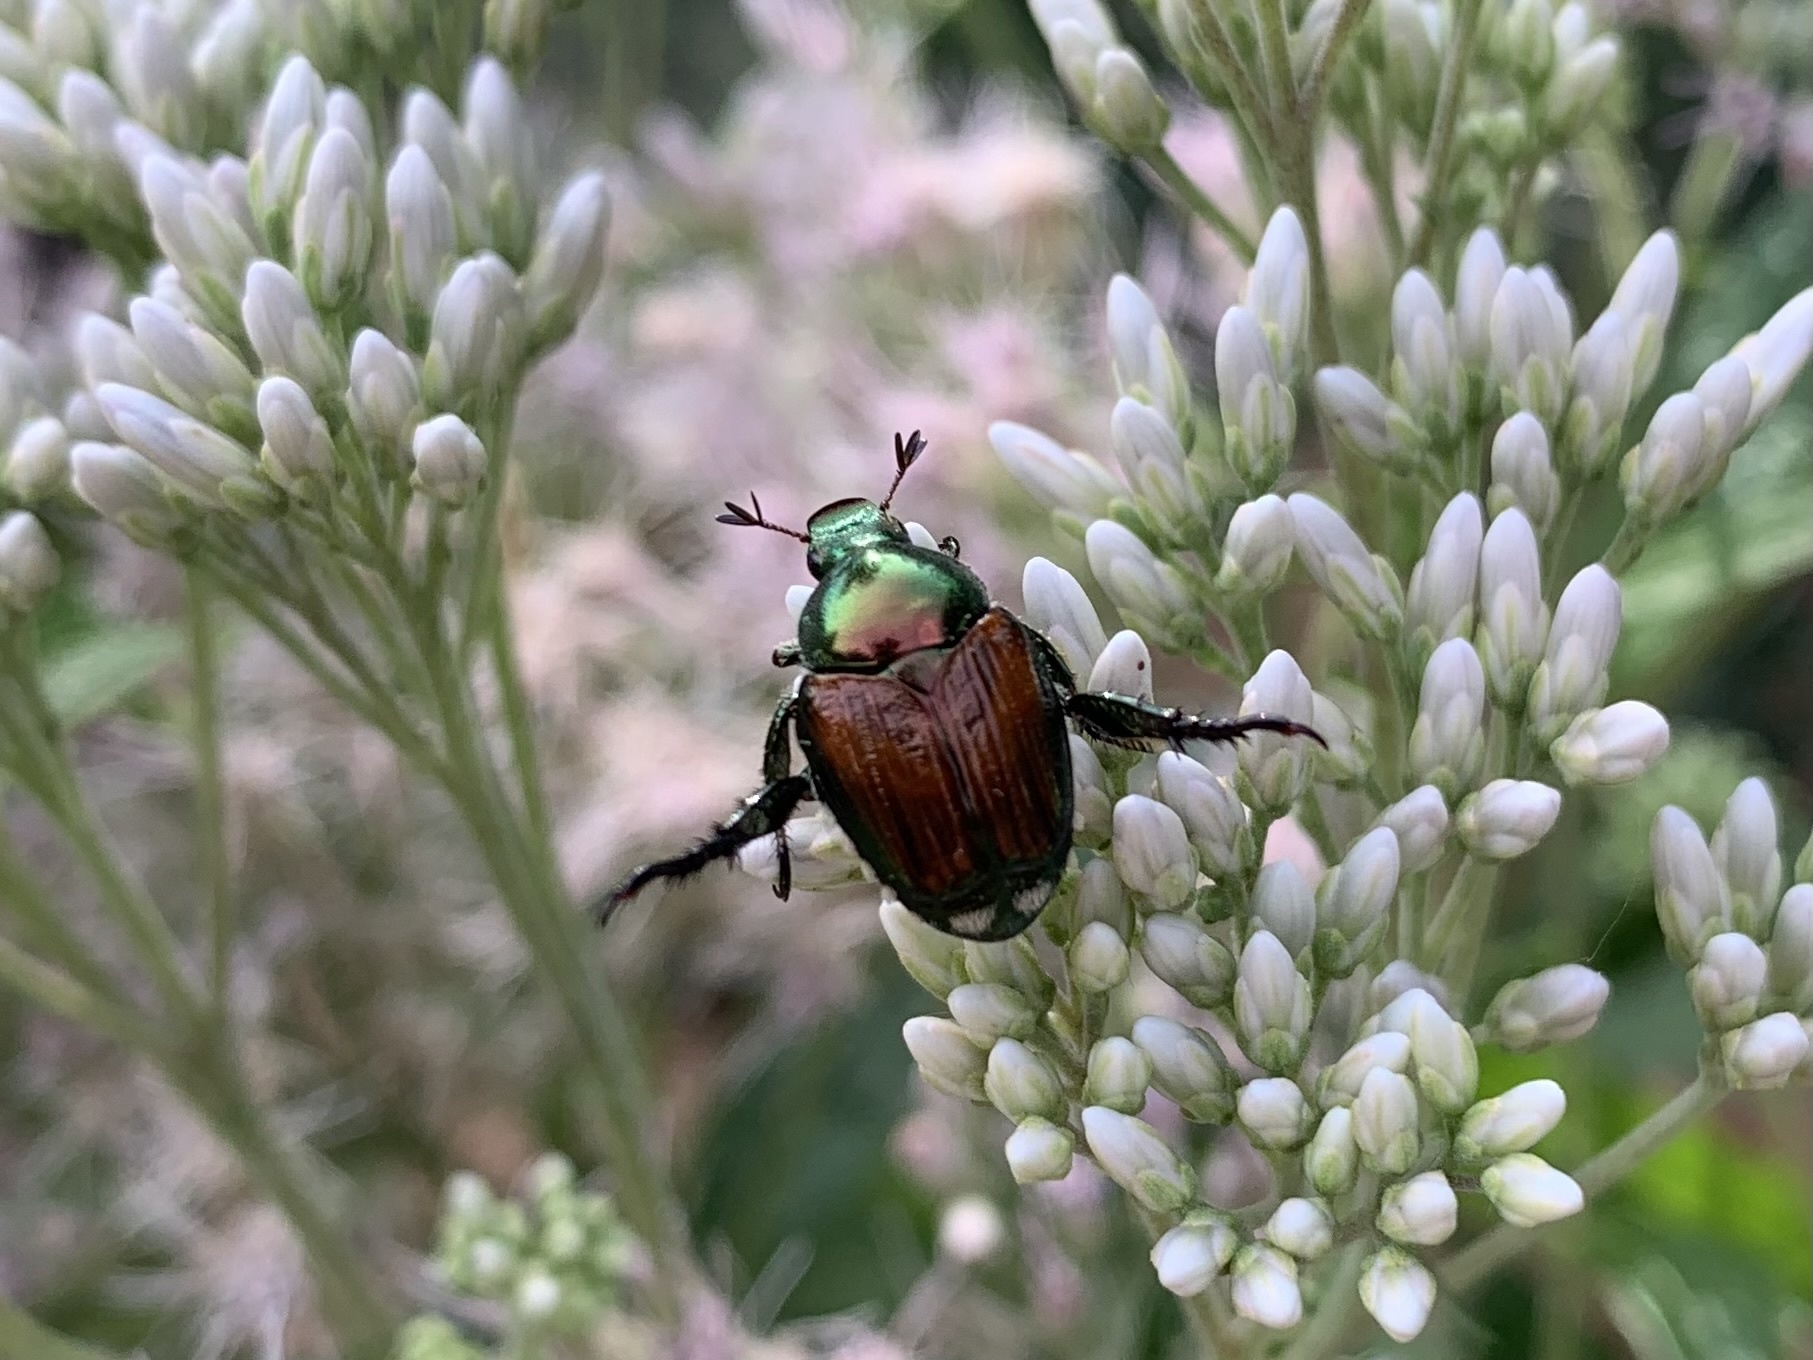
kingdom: Animalia
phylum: Arthropoda
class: Insecta
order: Coleoptera
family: Scarabaeidae
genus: Popillia
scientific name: Popillia japonica
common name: Japanese beetle
